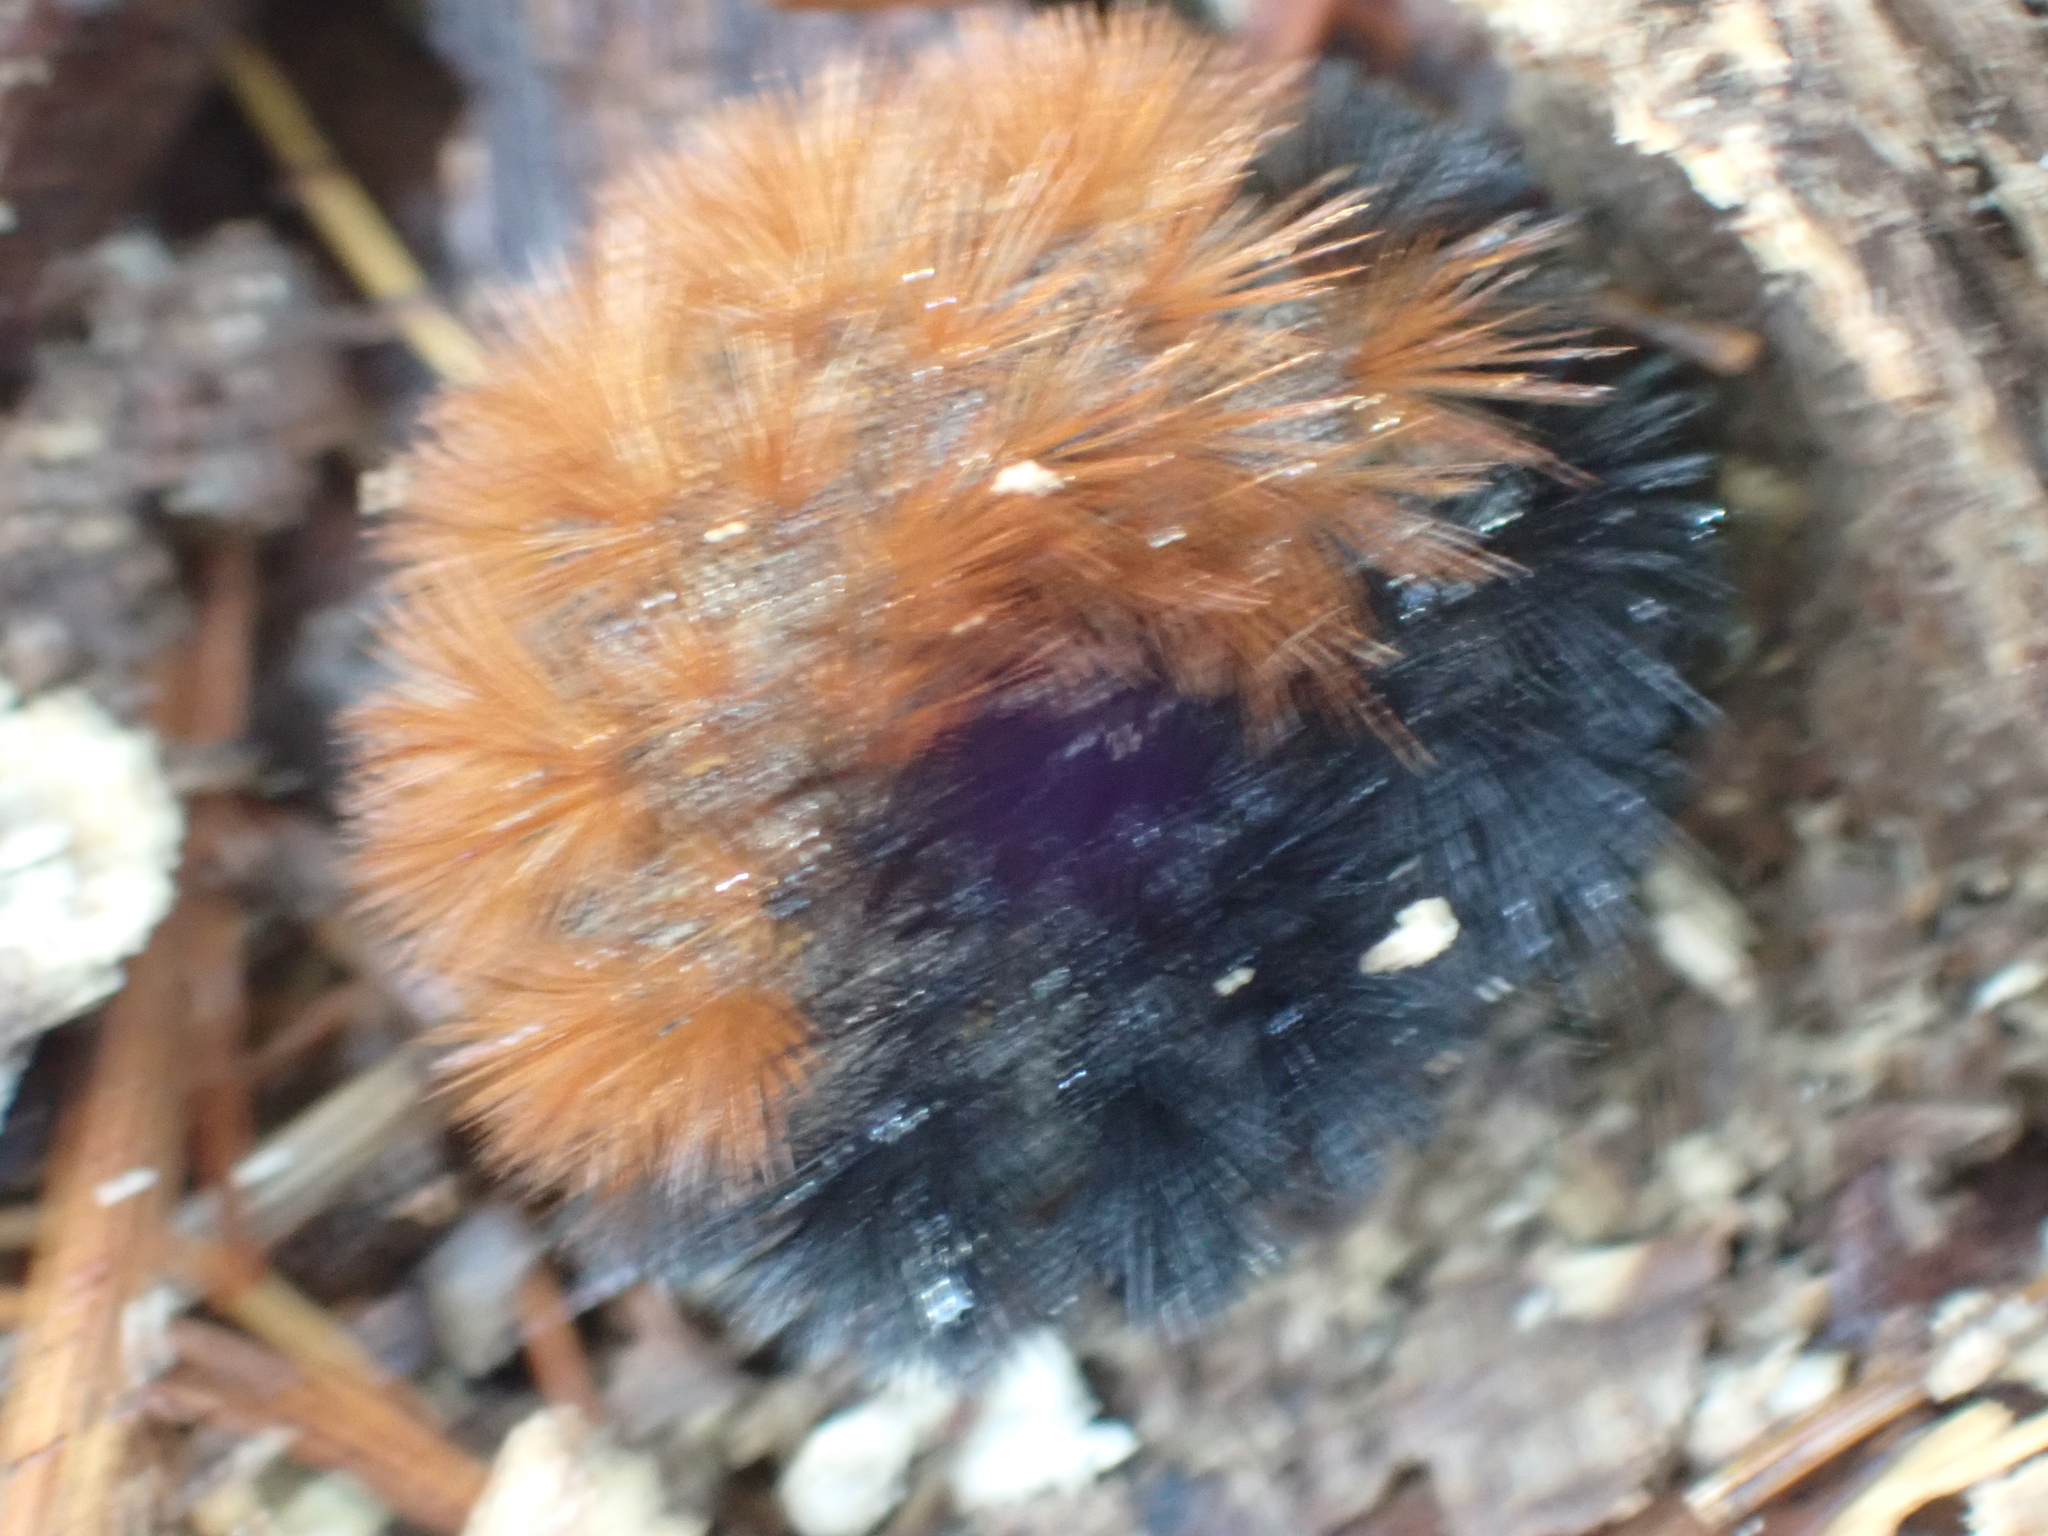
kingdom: Animalia
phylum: Arthropoda
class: Insecta
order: Lepidoptera
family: Erebidae
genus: Pyrrharctia
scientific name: Pyrrharctia isabella
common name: Isabella tiger moth
